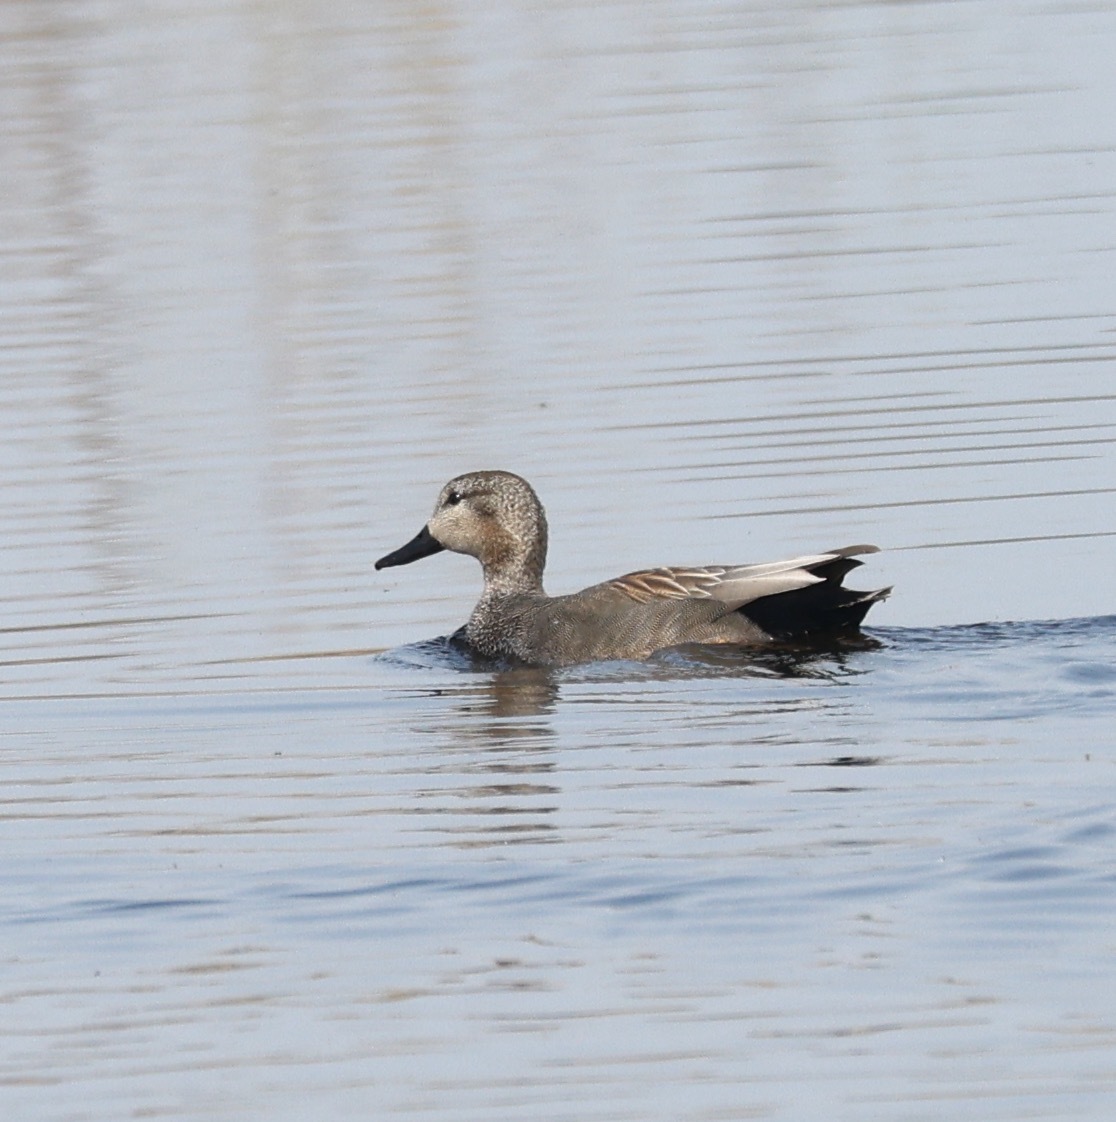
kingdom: Animalia
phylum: Chordata
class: Aves
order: Anseriformes
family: Anatidae
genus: Mareca
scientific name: Mareca strepera
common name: Gadwall
